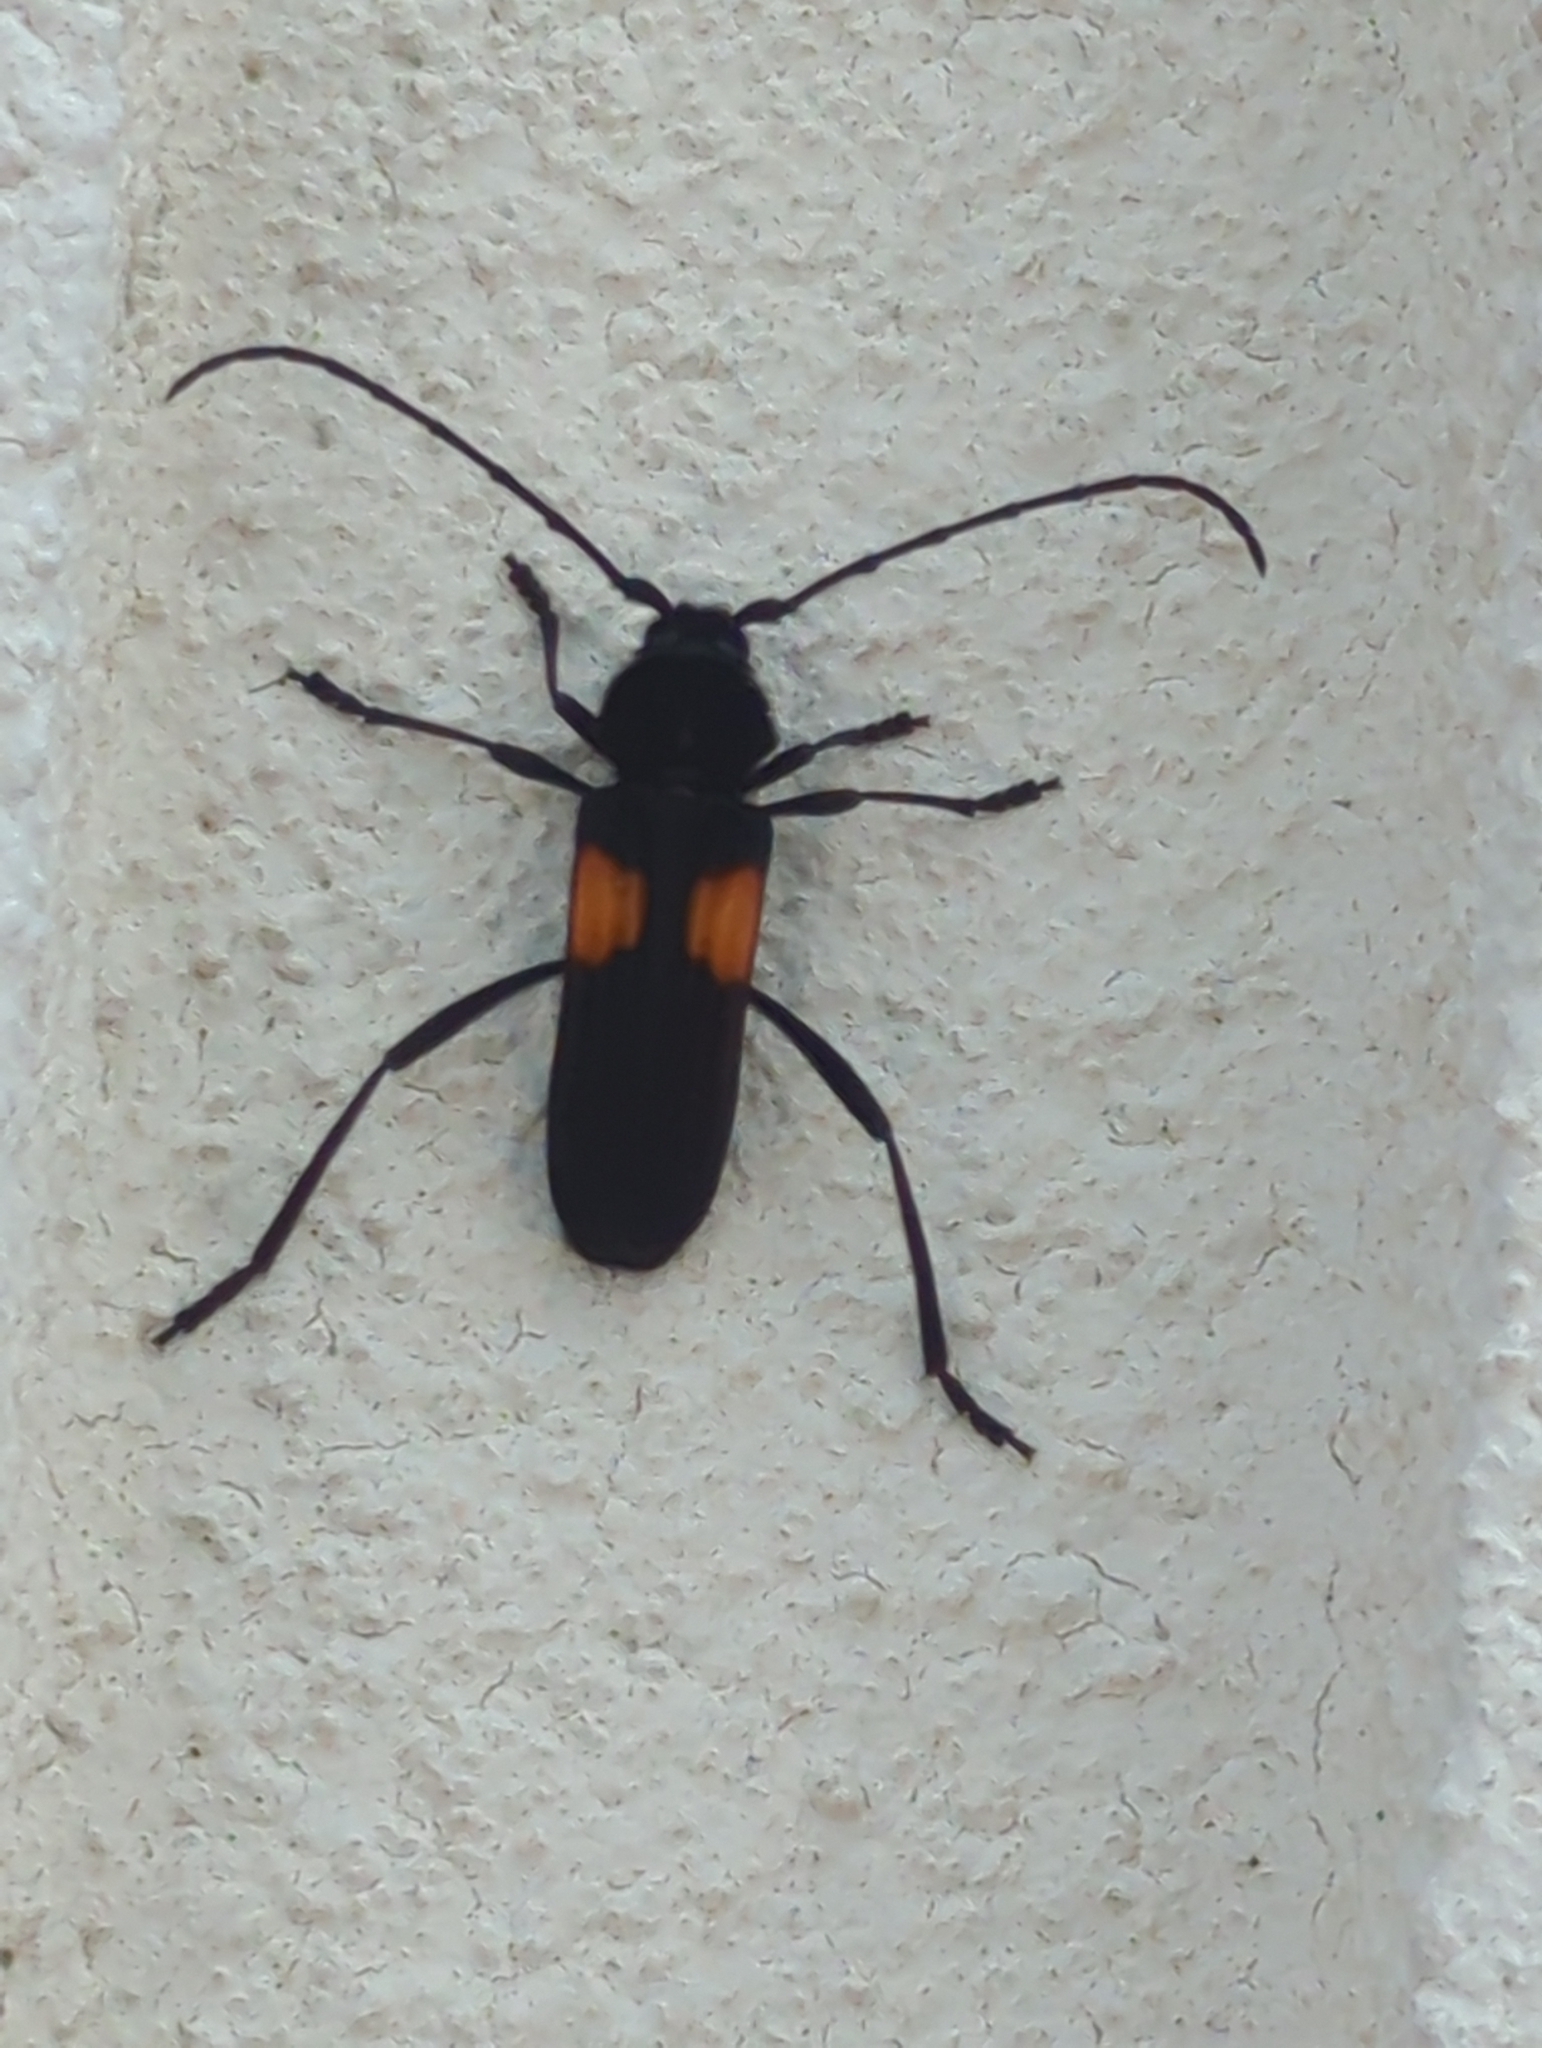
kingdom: Animalia
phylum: Arthropoda
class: Insecta
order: Coleoptera
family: Cerambycidae
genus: Tragidion
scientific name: Tragidion coquus
